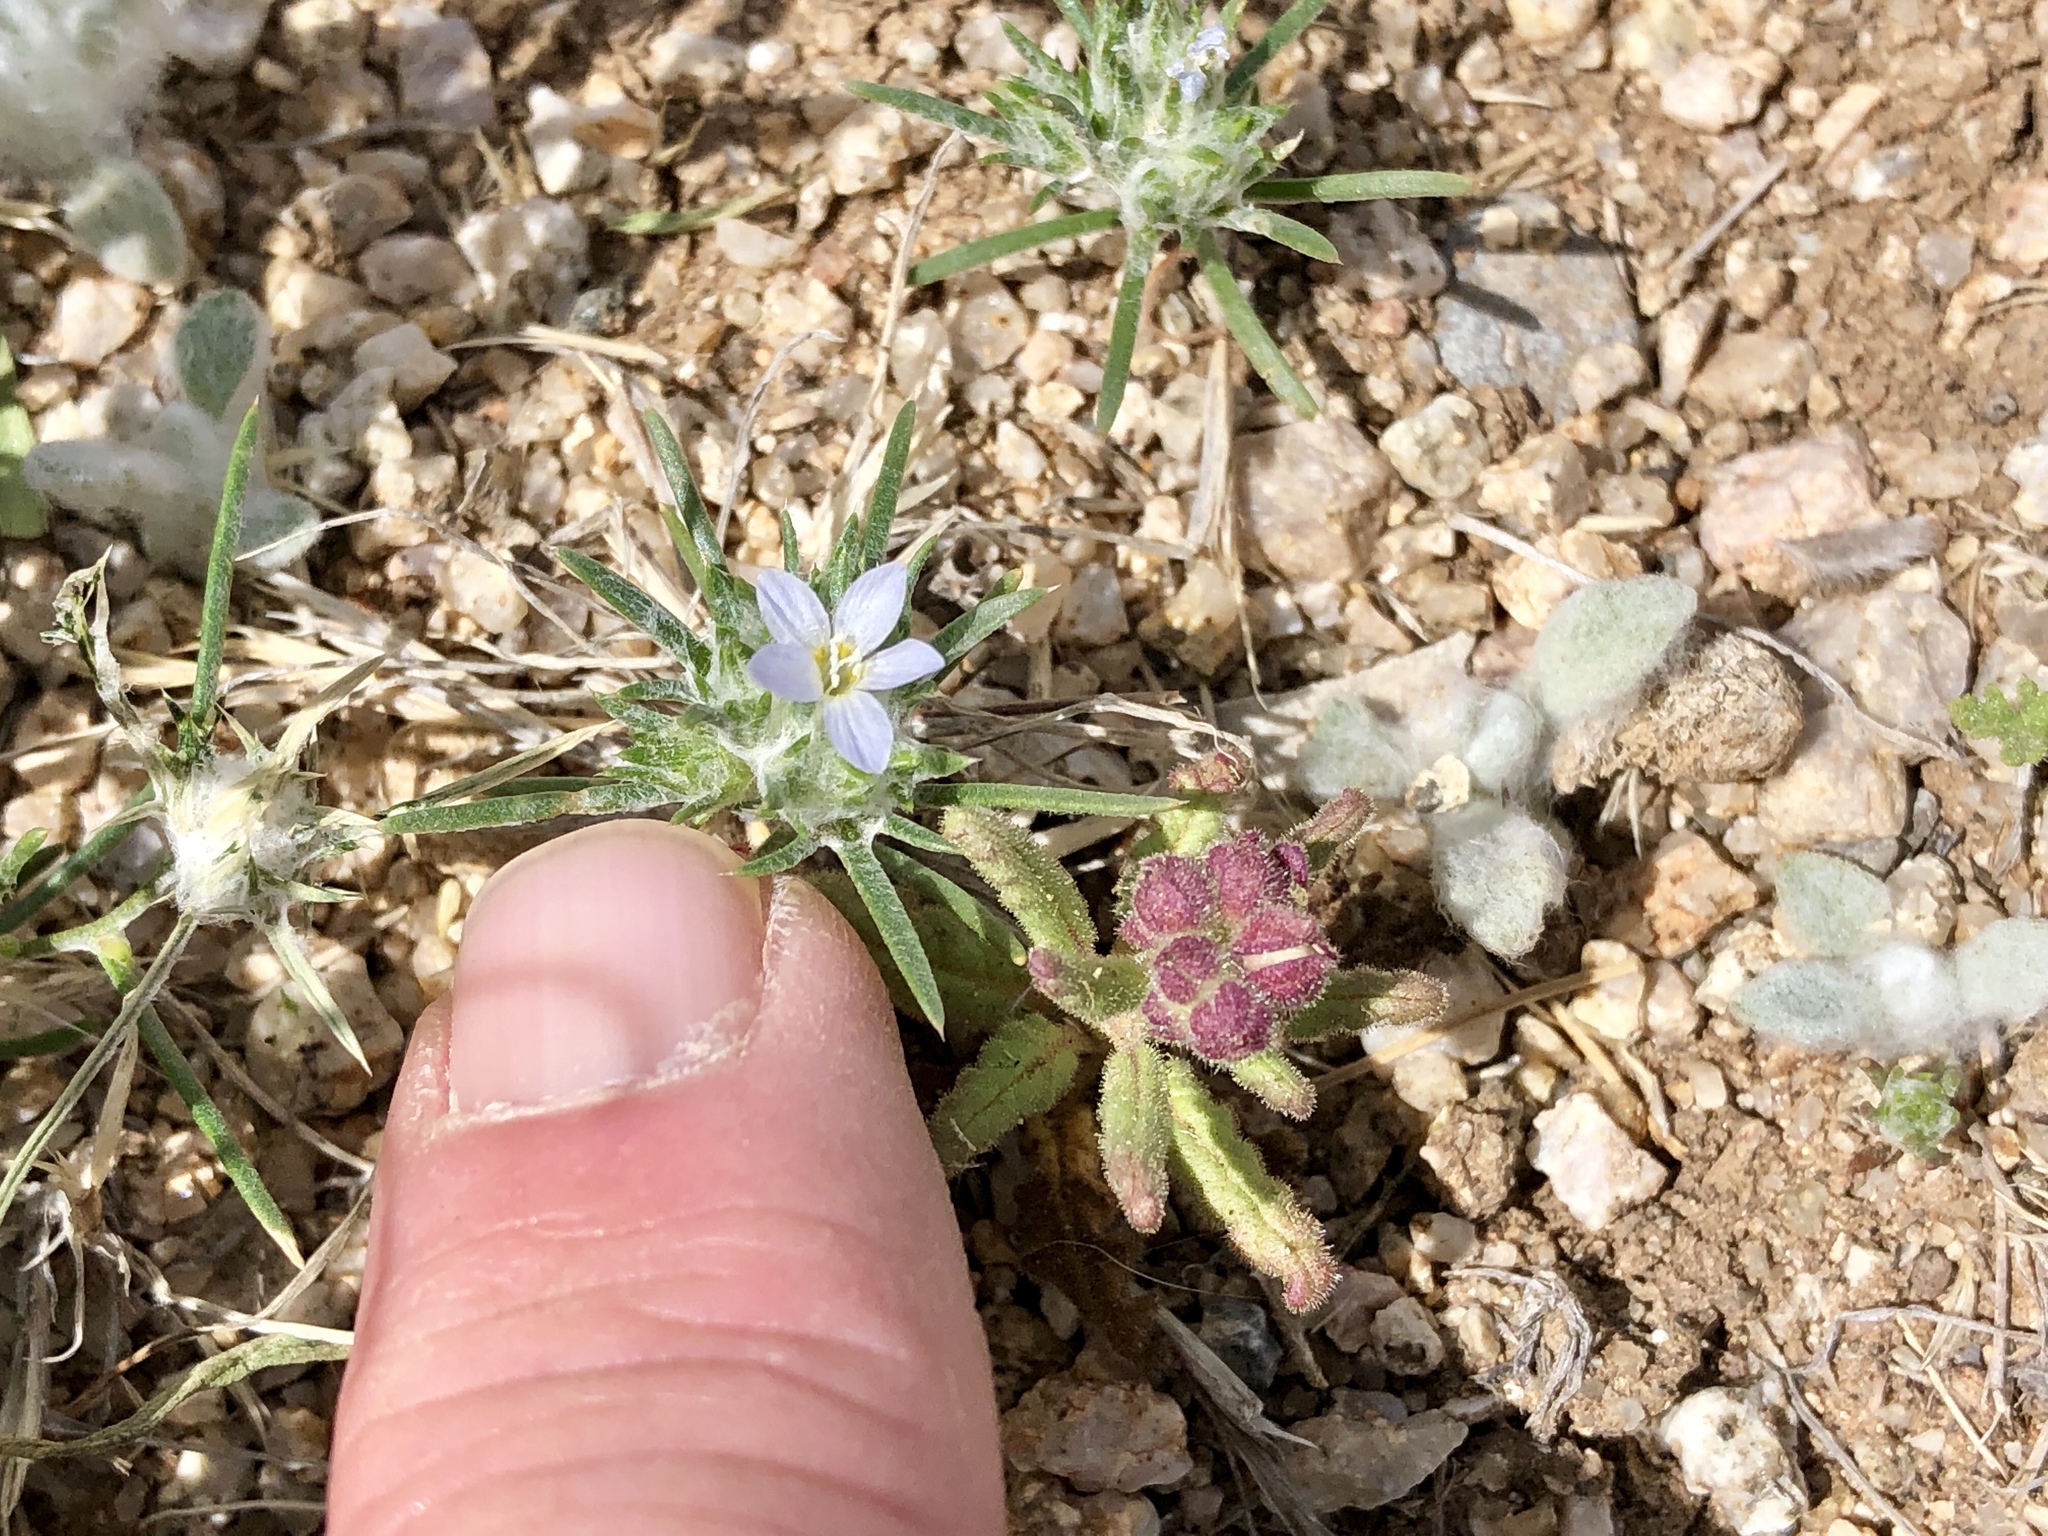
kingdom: Plantae
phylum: Tracheophyta
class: Magnoliopsida
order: Ericales
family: Polemoniaceae
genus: Eriastrum
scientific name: Eriastrum diffusum
